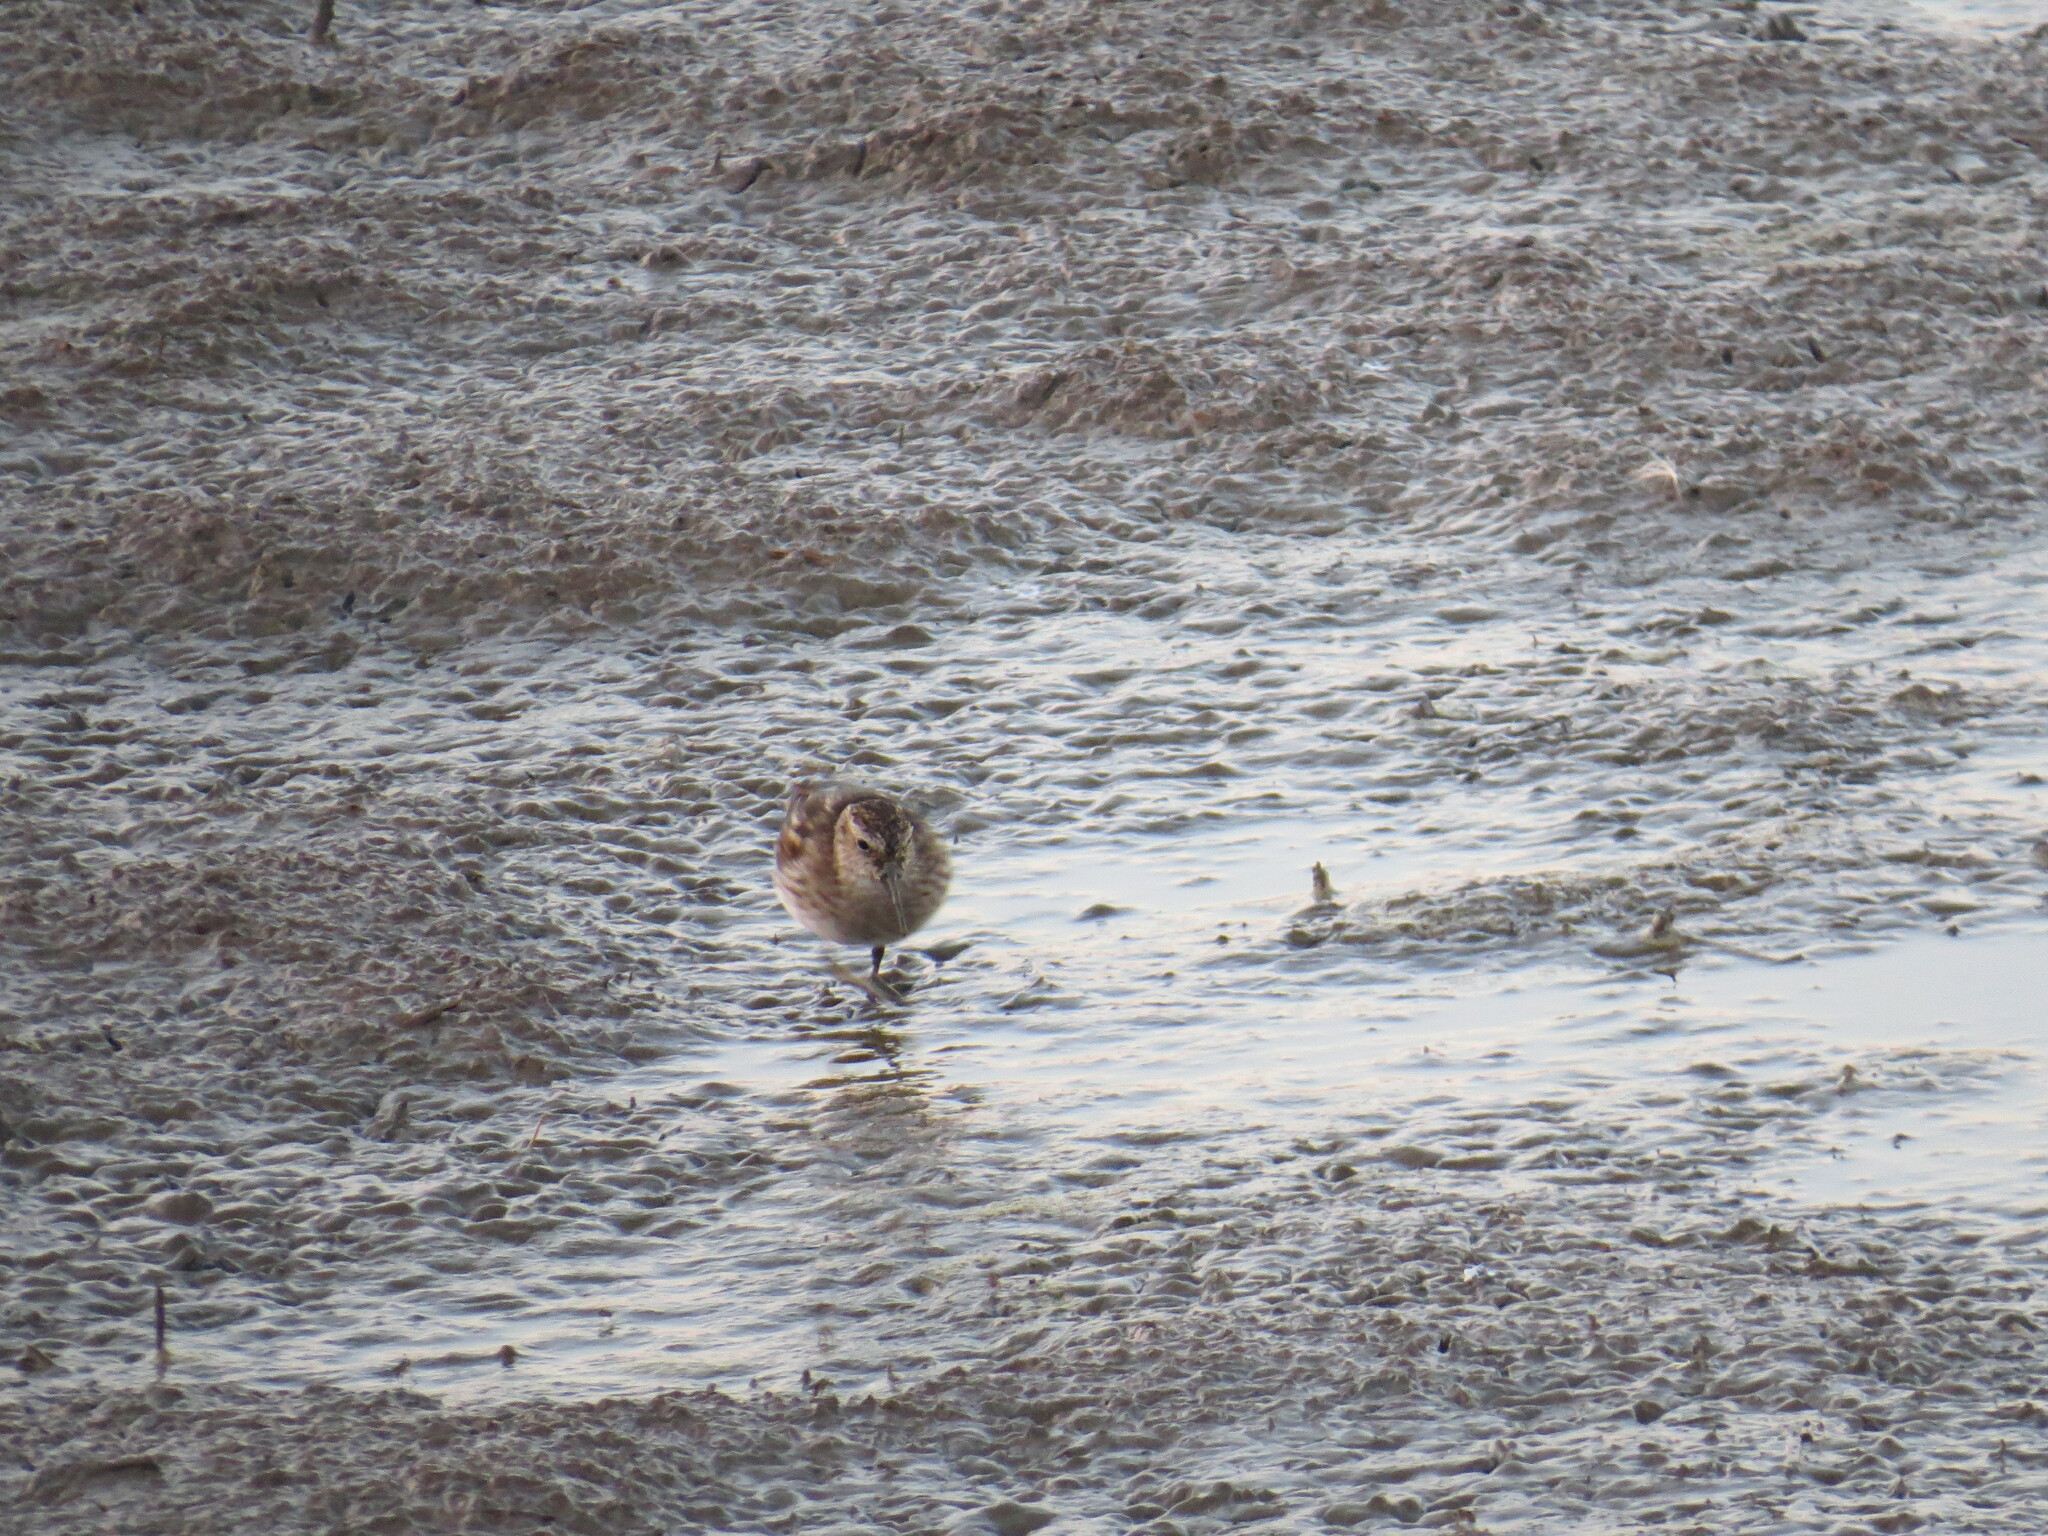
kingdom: Animalia
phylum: Chordata
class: Aves
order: Charadriiformes
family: Scolopacidae
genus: Calidris
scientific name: Calidris melanotos
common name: Pectoral sandpiper
